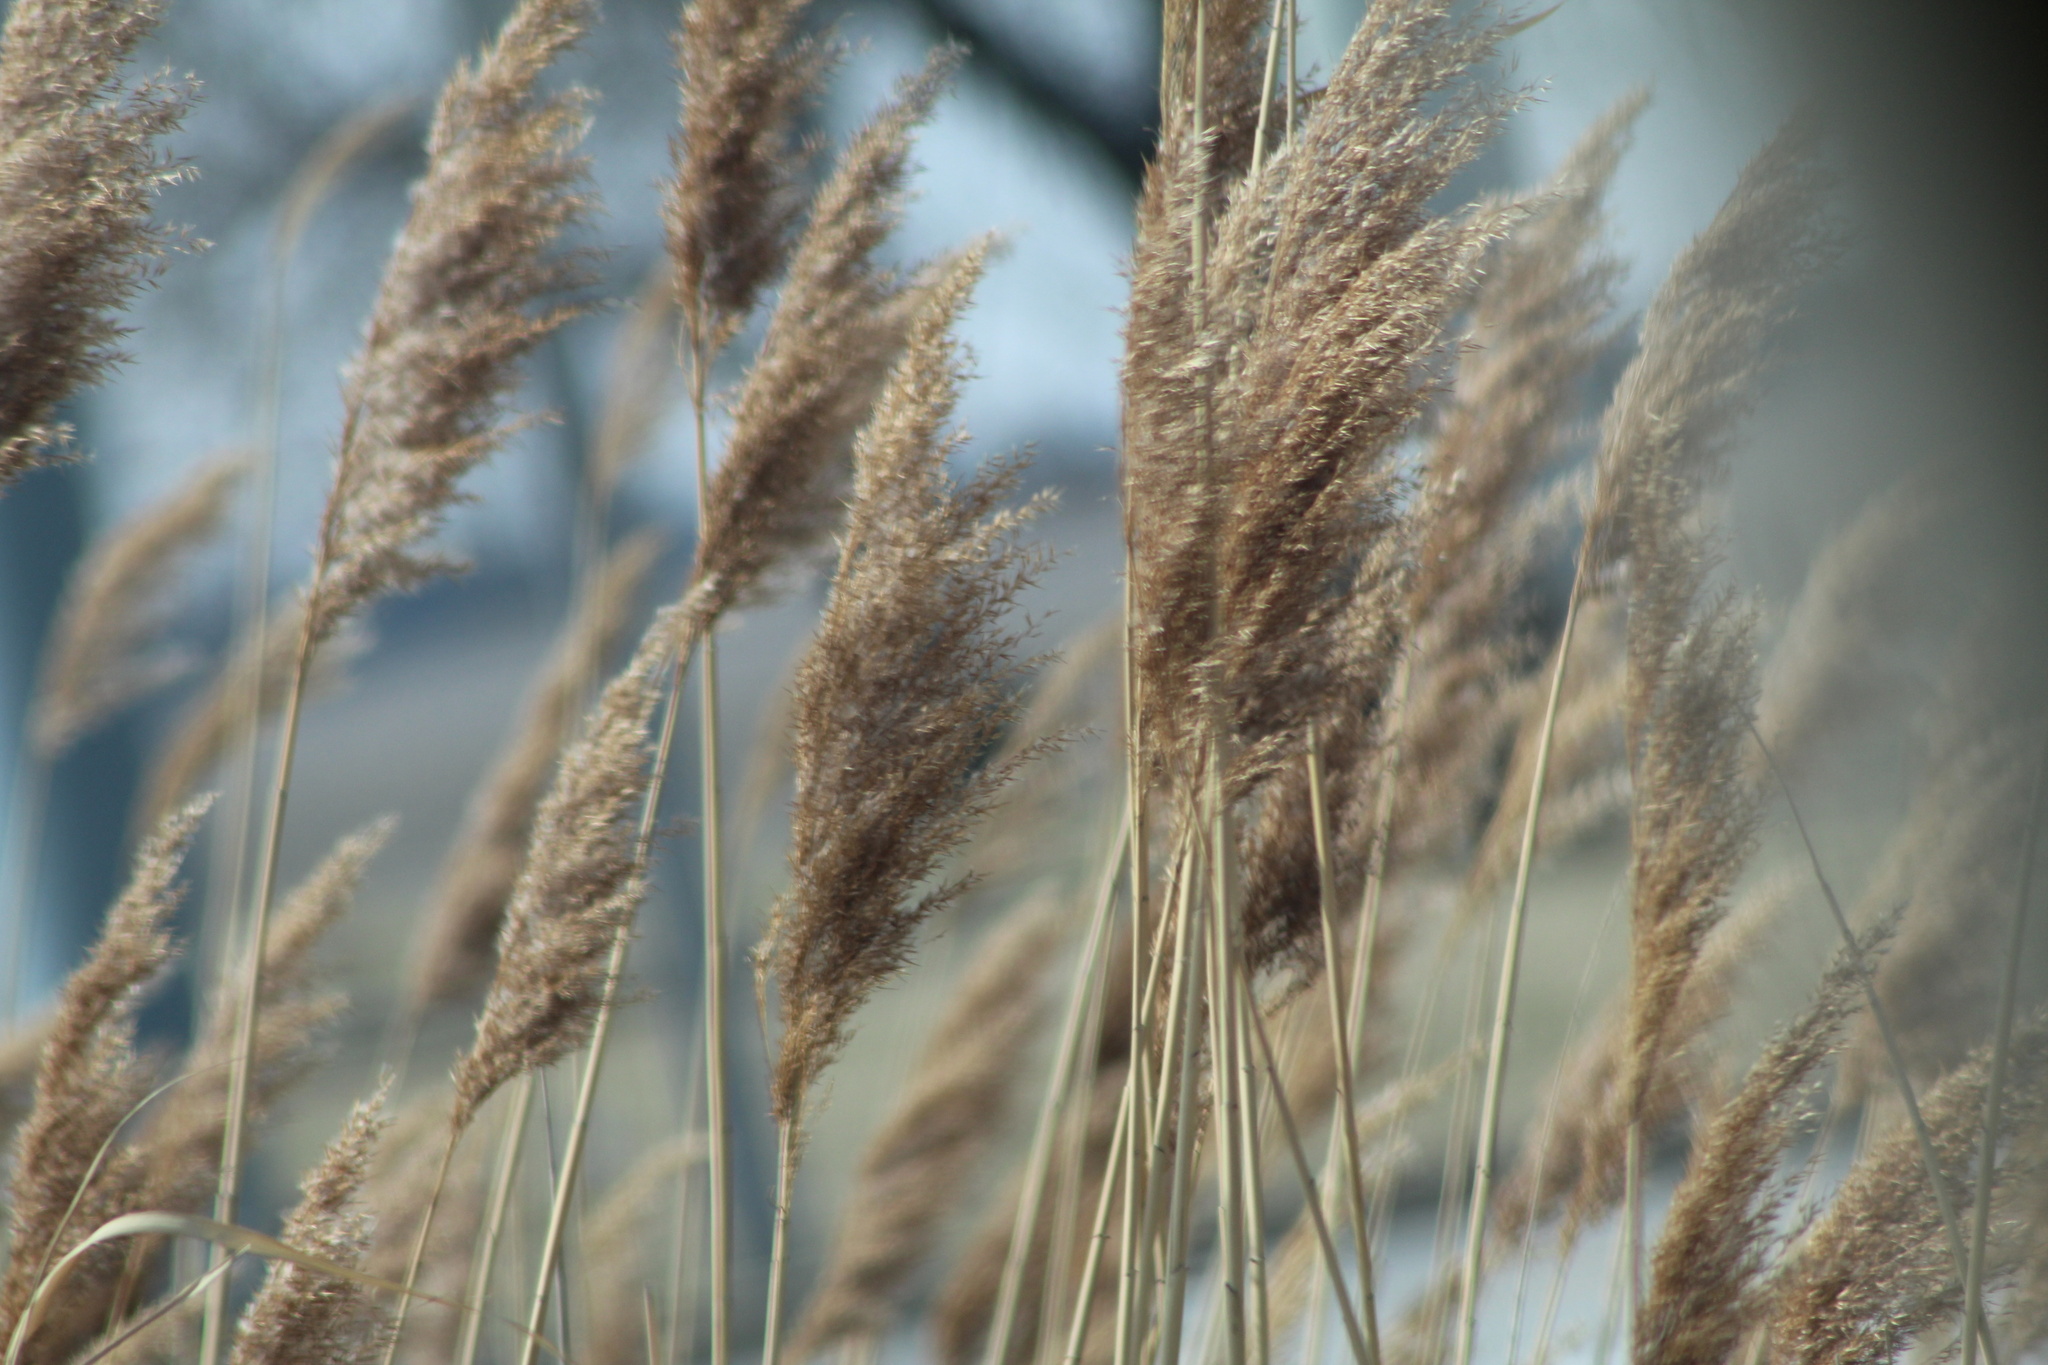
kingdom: Plantae
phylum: Tracheophyta
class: Liliopsida
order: Poales
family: Poaceae
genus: Phragmites
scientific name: Phragmites australis
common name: Common reed
